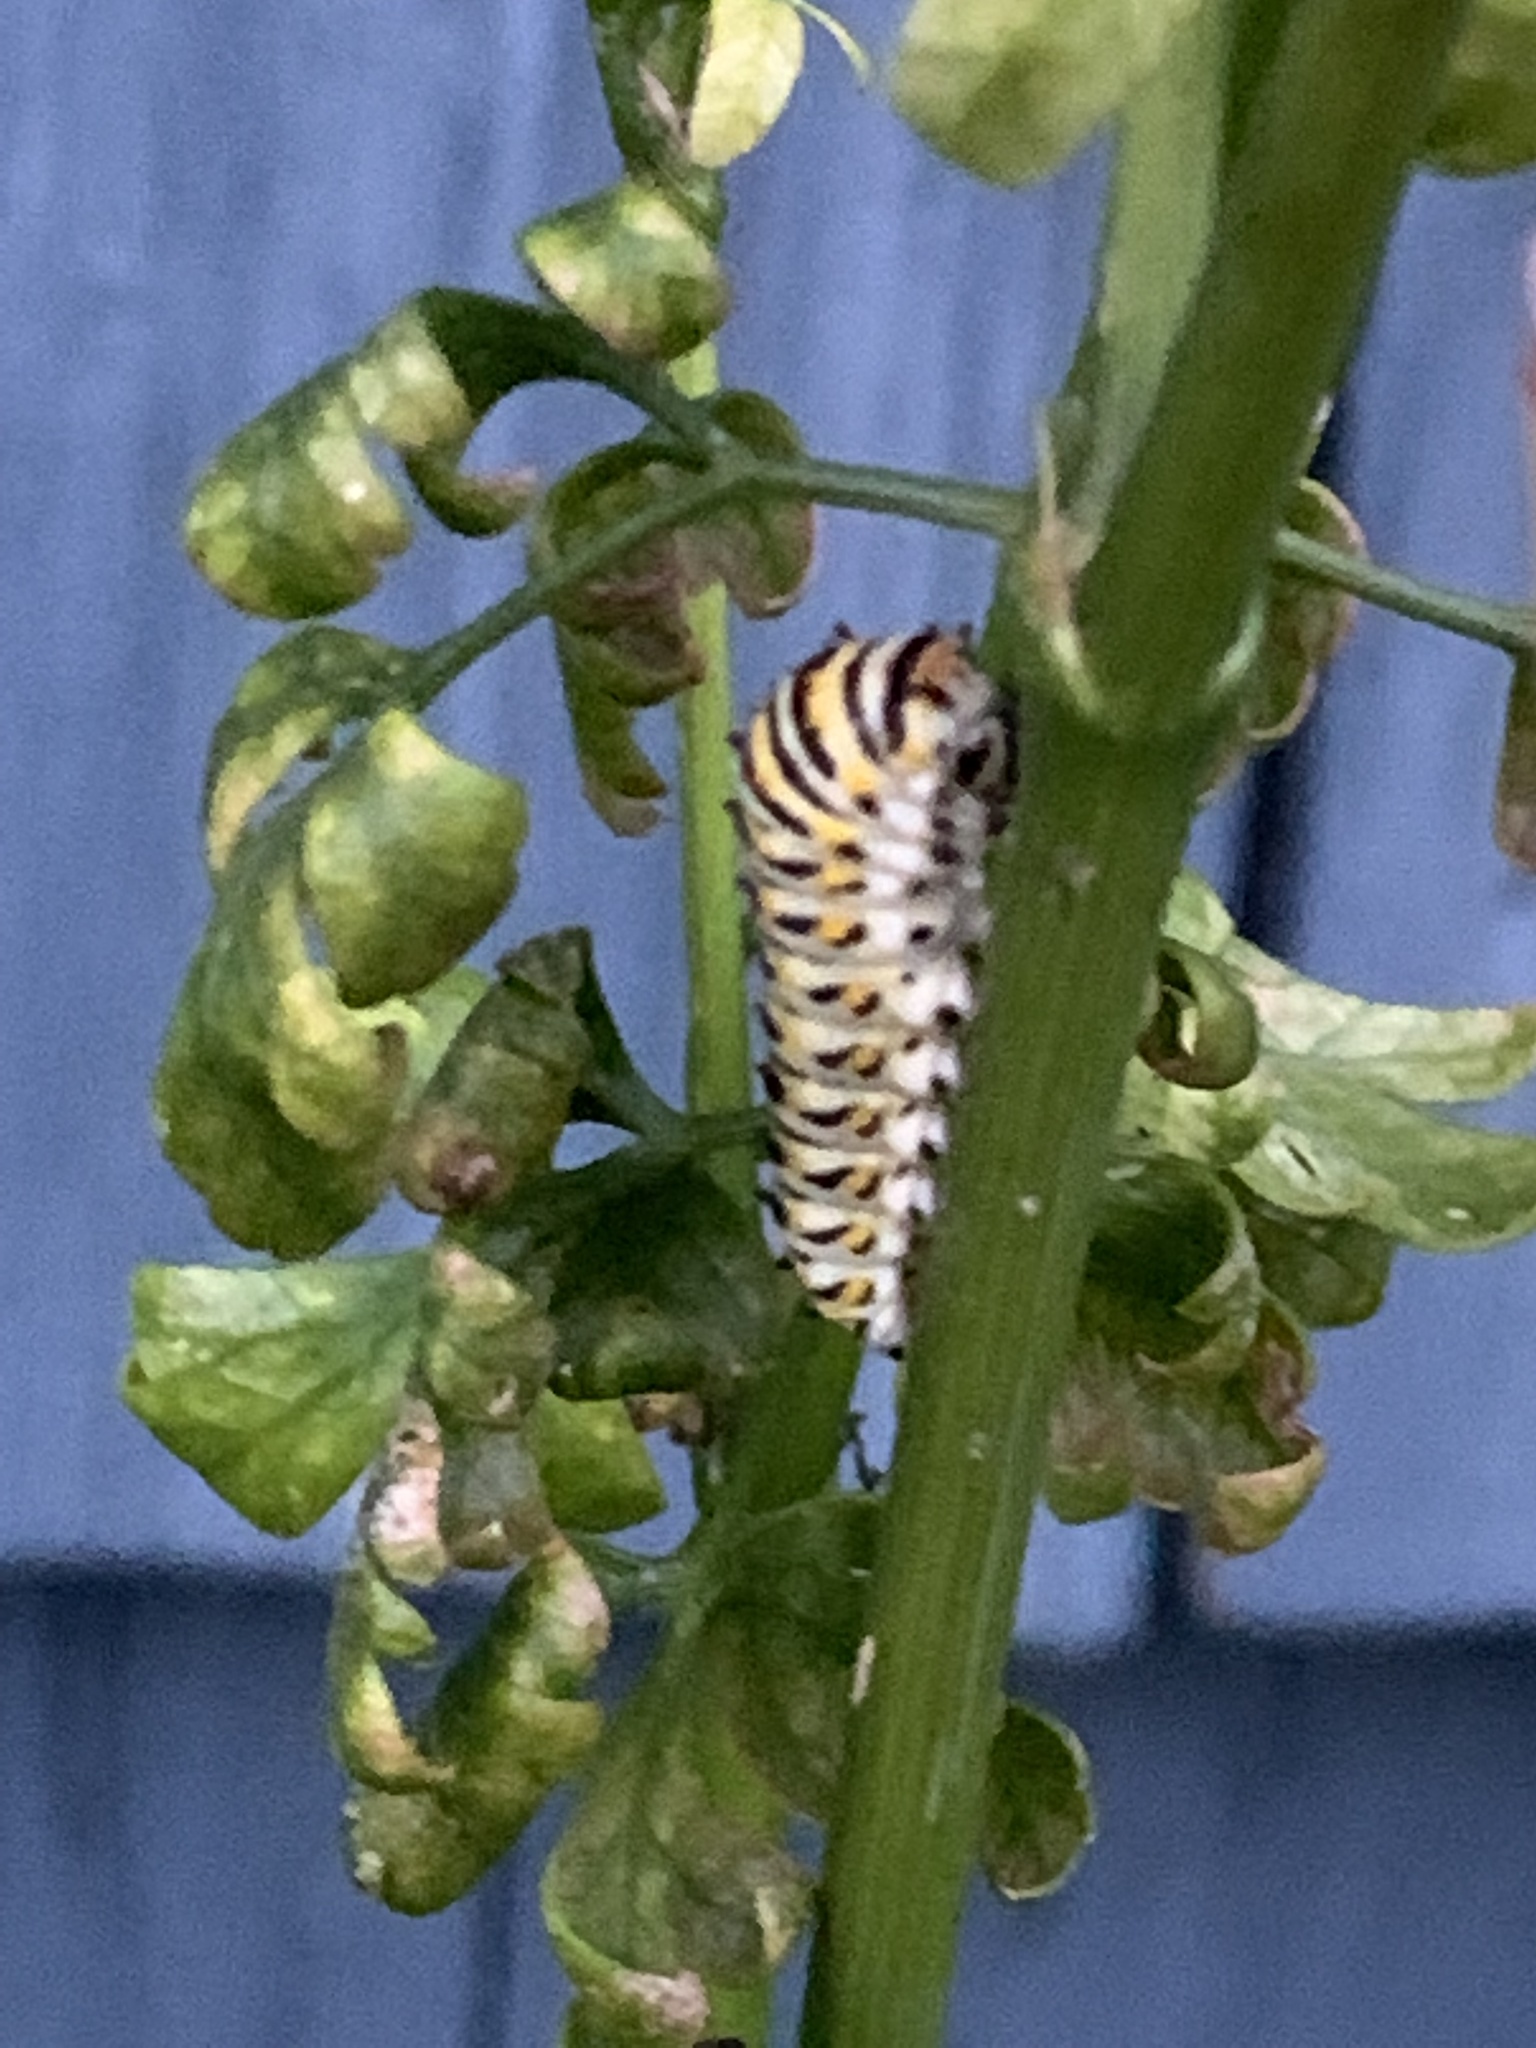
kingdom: Animalia
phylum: Arthropoda
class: Insecta
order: Lepidoptera
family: Papilionidae
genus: Papilio
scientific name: Papilio polyxenes
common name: Black swallowtail
